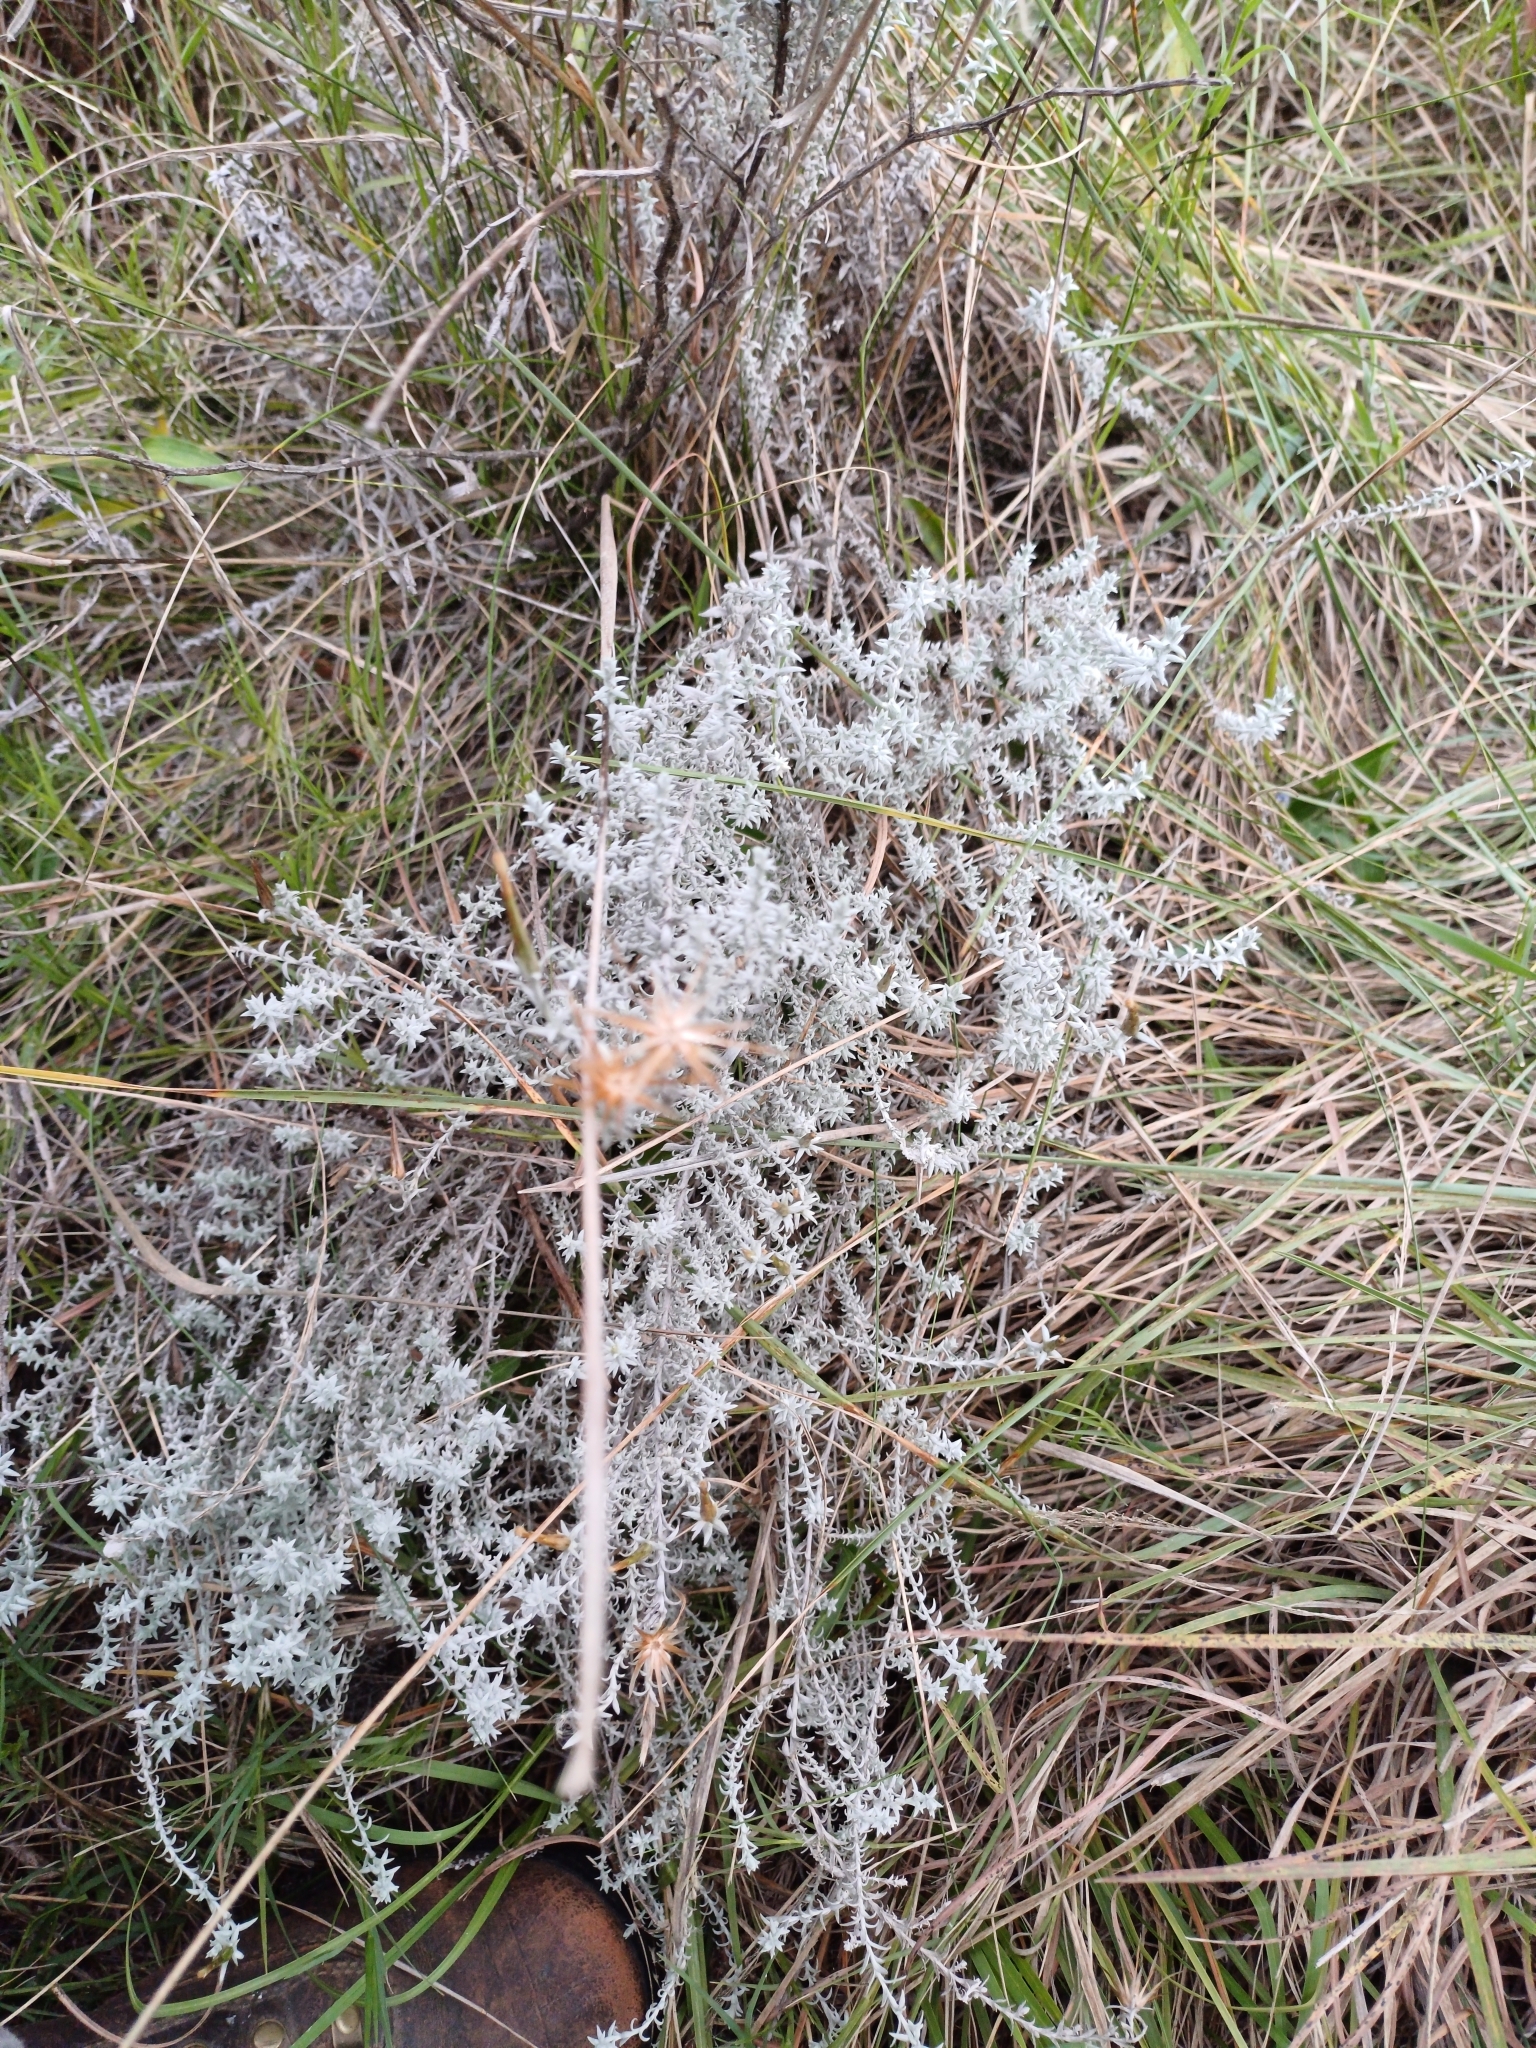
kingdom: Plantae
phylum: Tracheophyta
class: Magnoliopsida
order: Asterales
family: Asteraceae
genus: Lucilia
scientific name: Lucilia acutifolia
